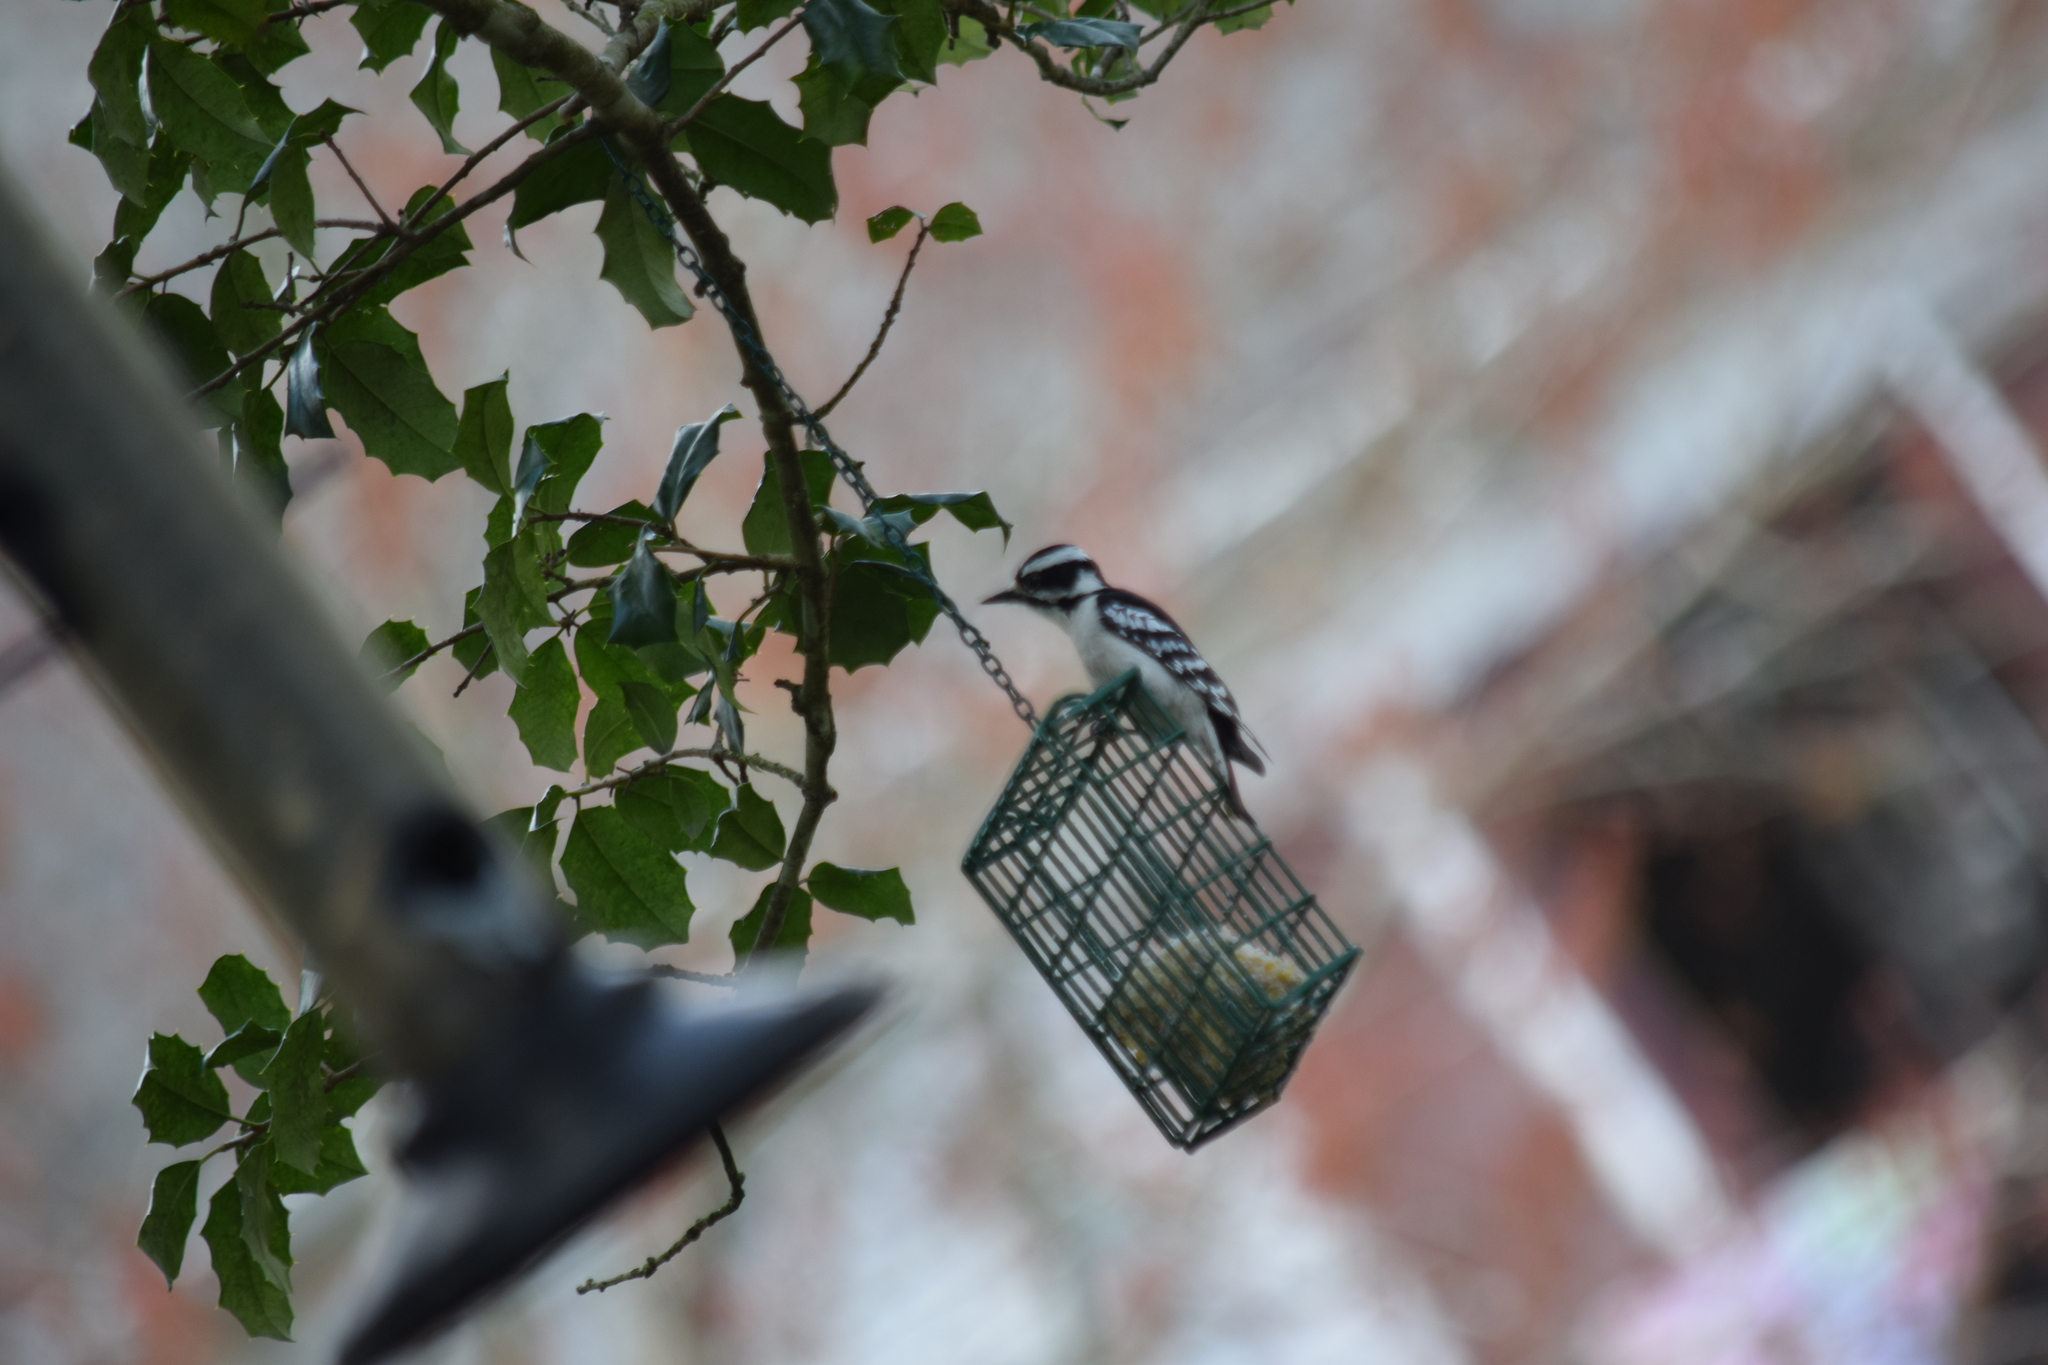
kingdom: Animalia
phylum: Chordata
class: Aves
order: Piciformes
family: Picidae
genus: Dryobates
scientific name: Dryobates pubescens
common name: Downy woodpecker
